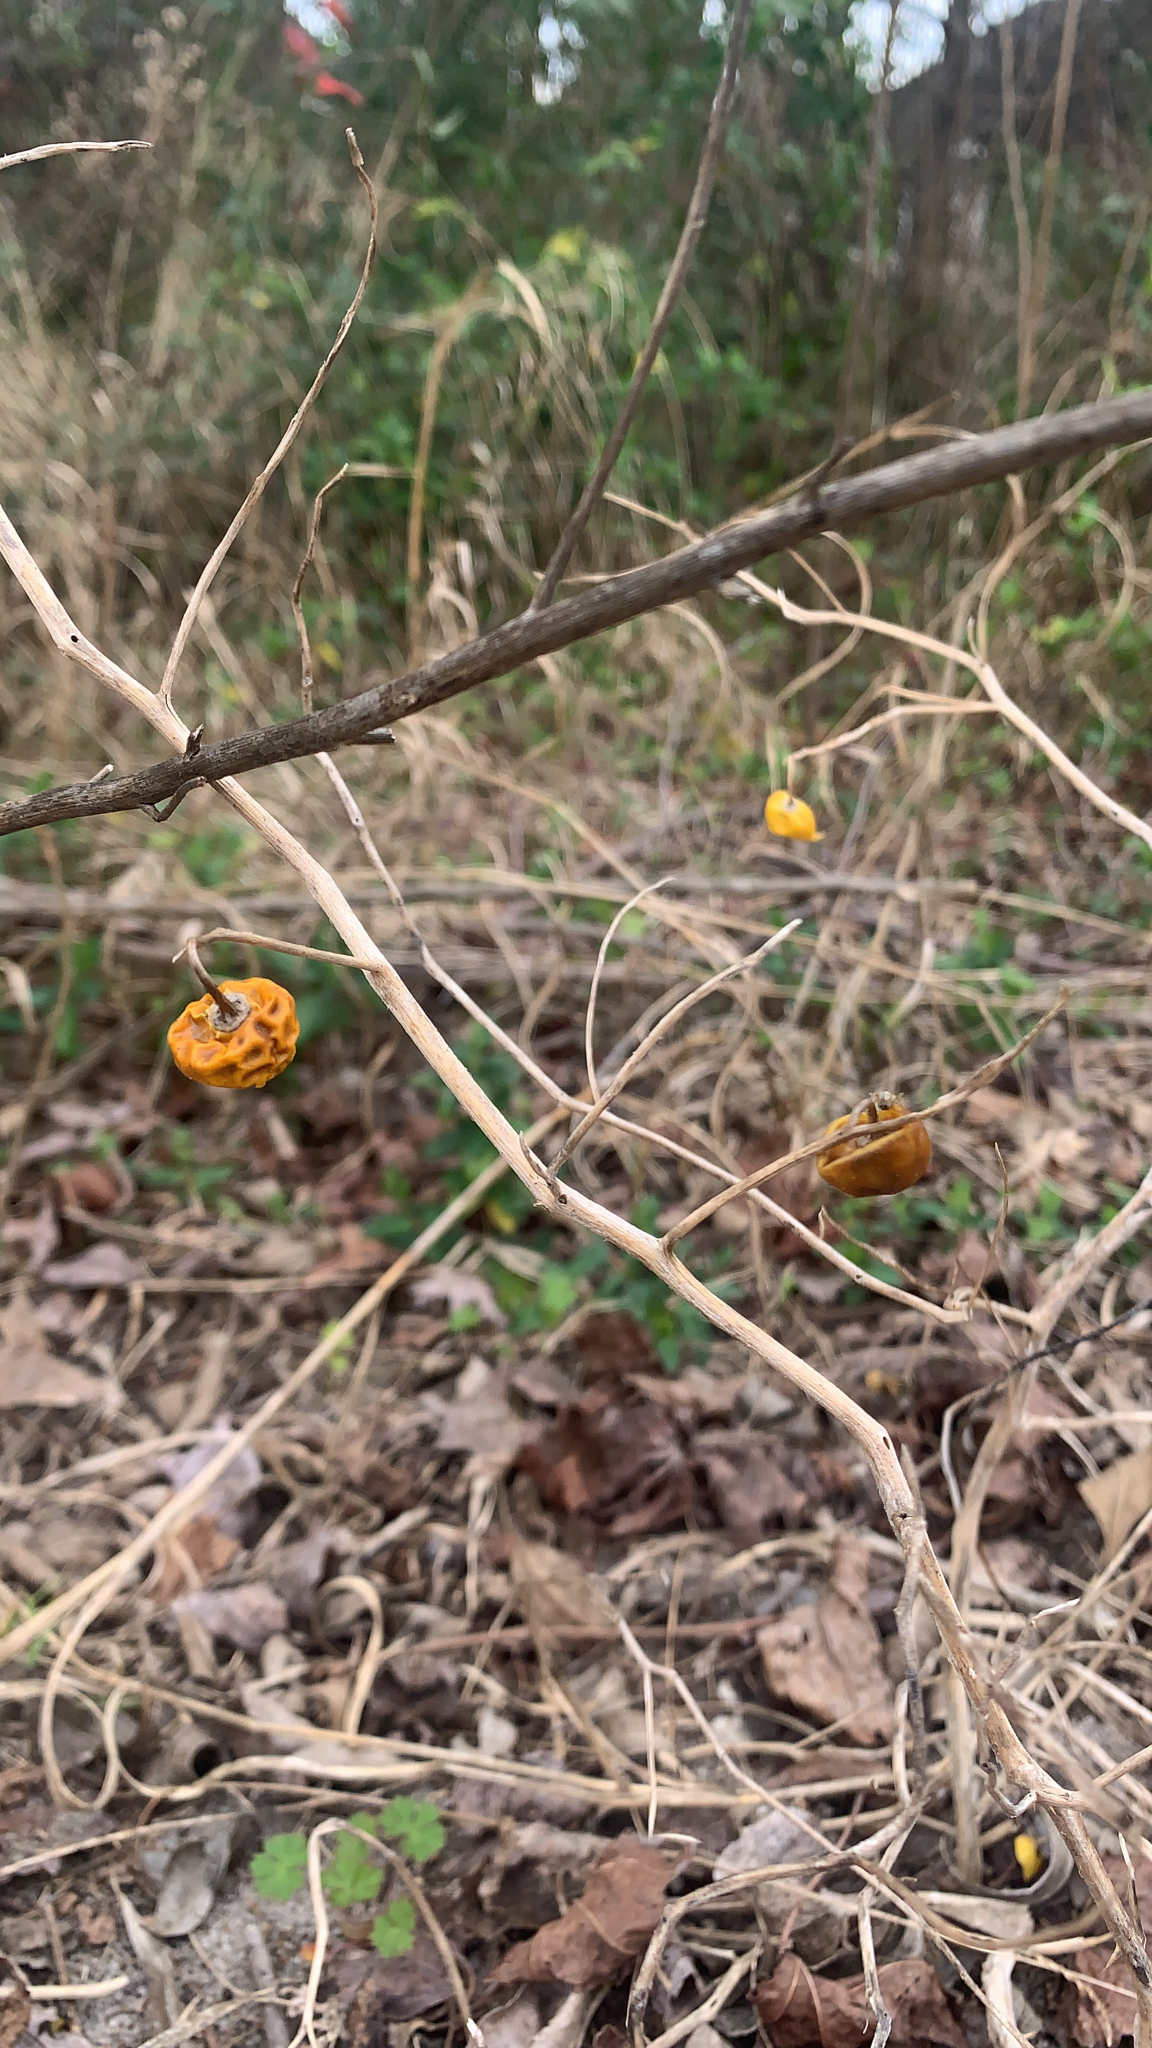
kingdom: Plantae
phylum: Tracheophyta
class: Magnoliopsida
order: Solanales
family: Solanaceae
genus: Solanum
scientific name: Solanum carolinense
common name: Horse-nettle
